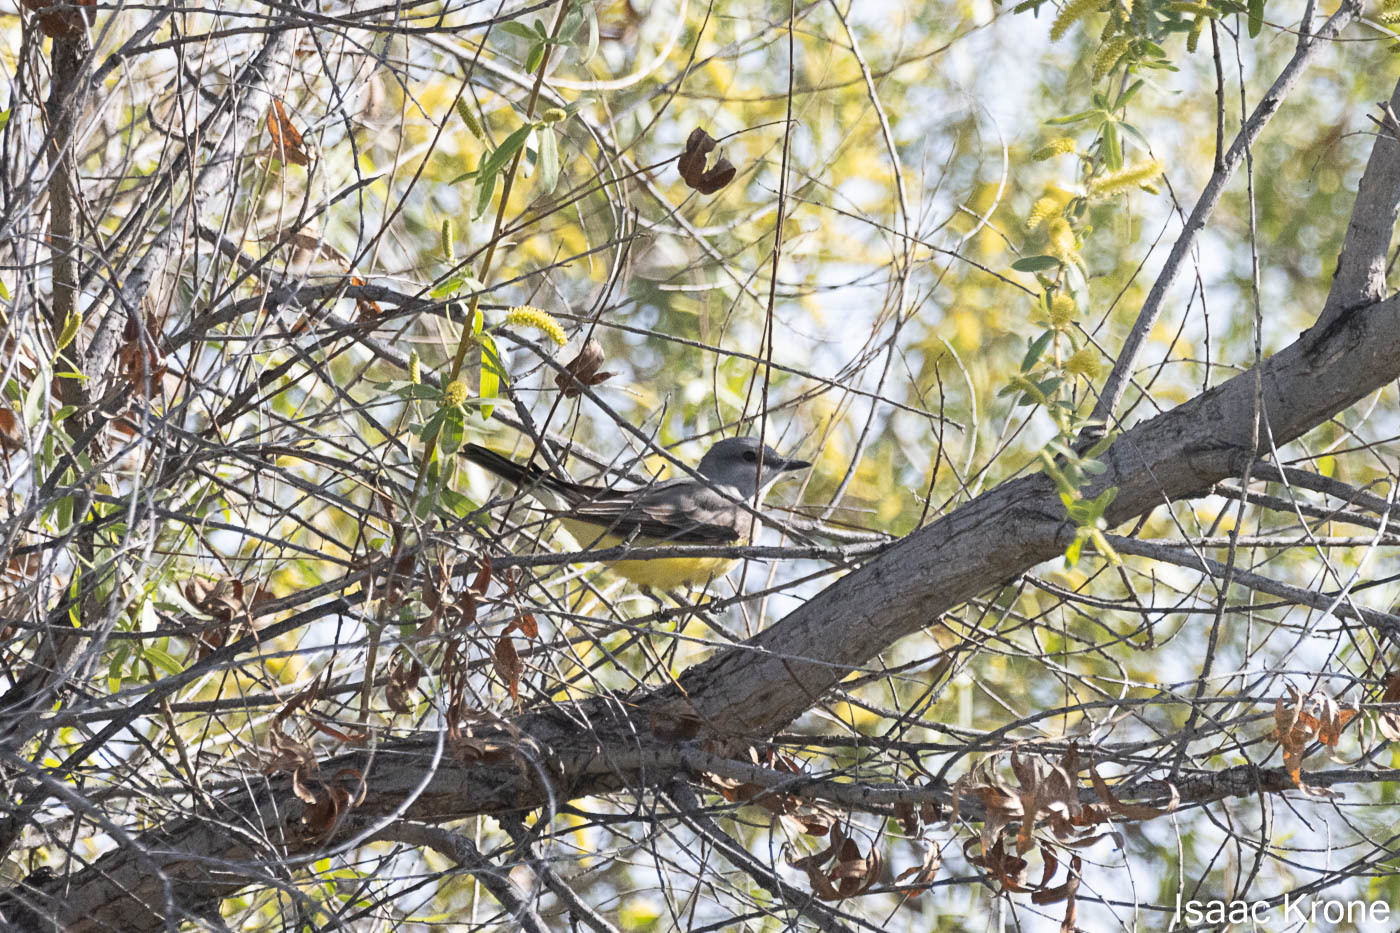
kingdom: Animalia
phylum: Chordata
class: Aves
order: Passeriformes
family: Tyrannidae
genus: Tyrannus
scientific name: Tyrannus verticalis
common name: Western kingbird
